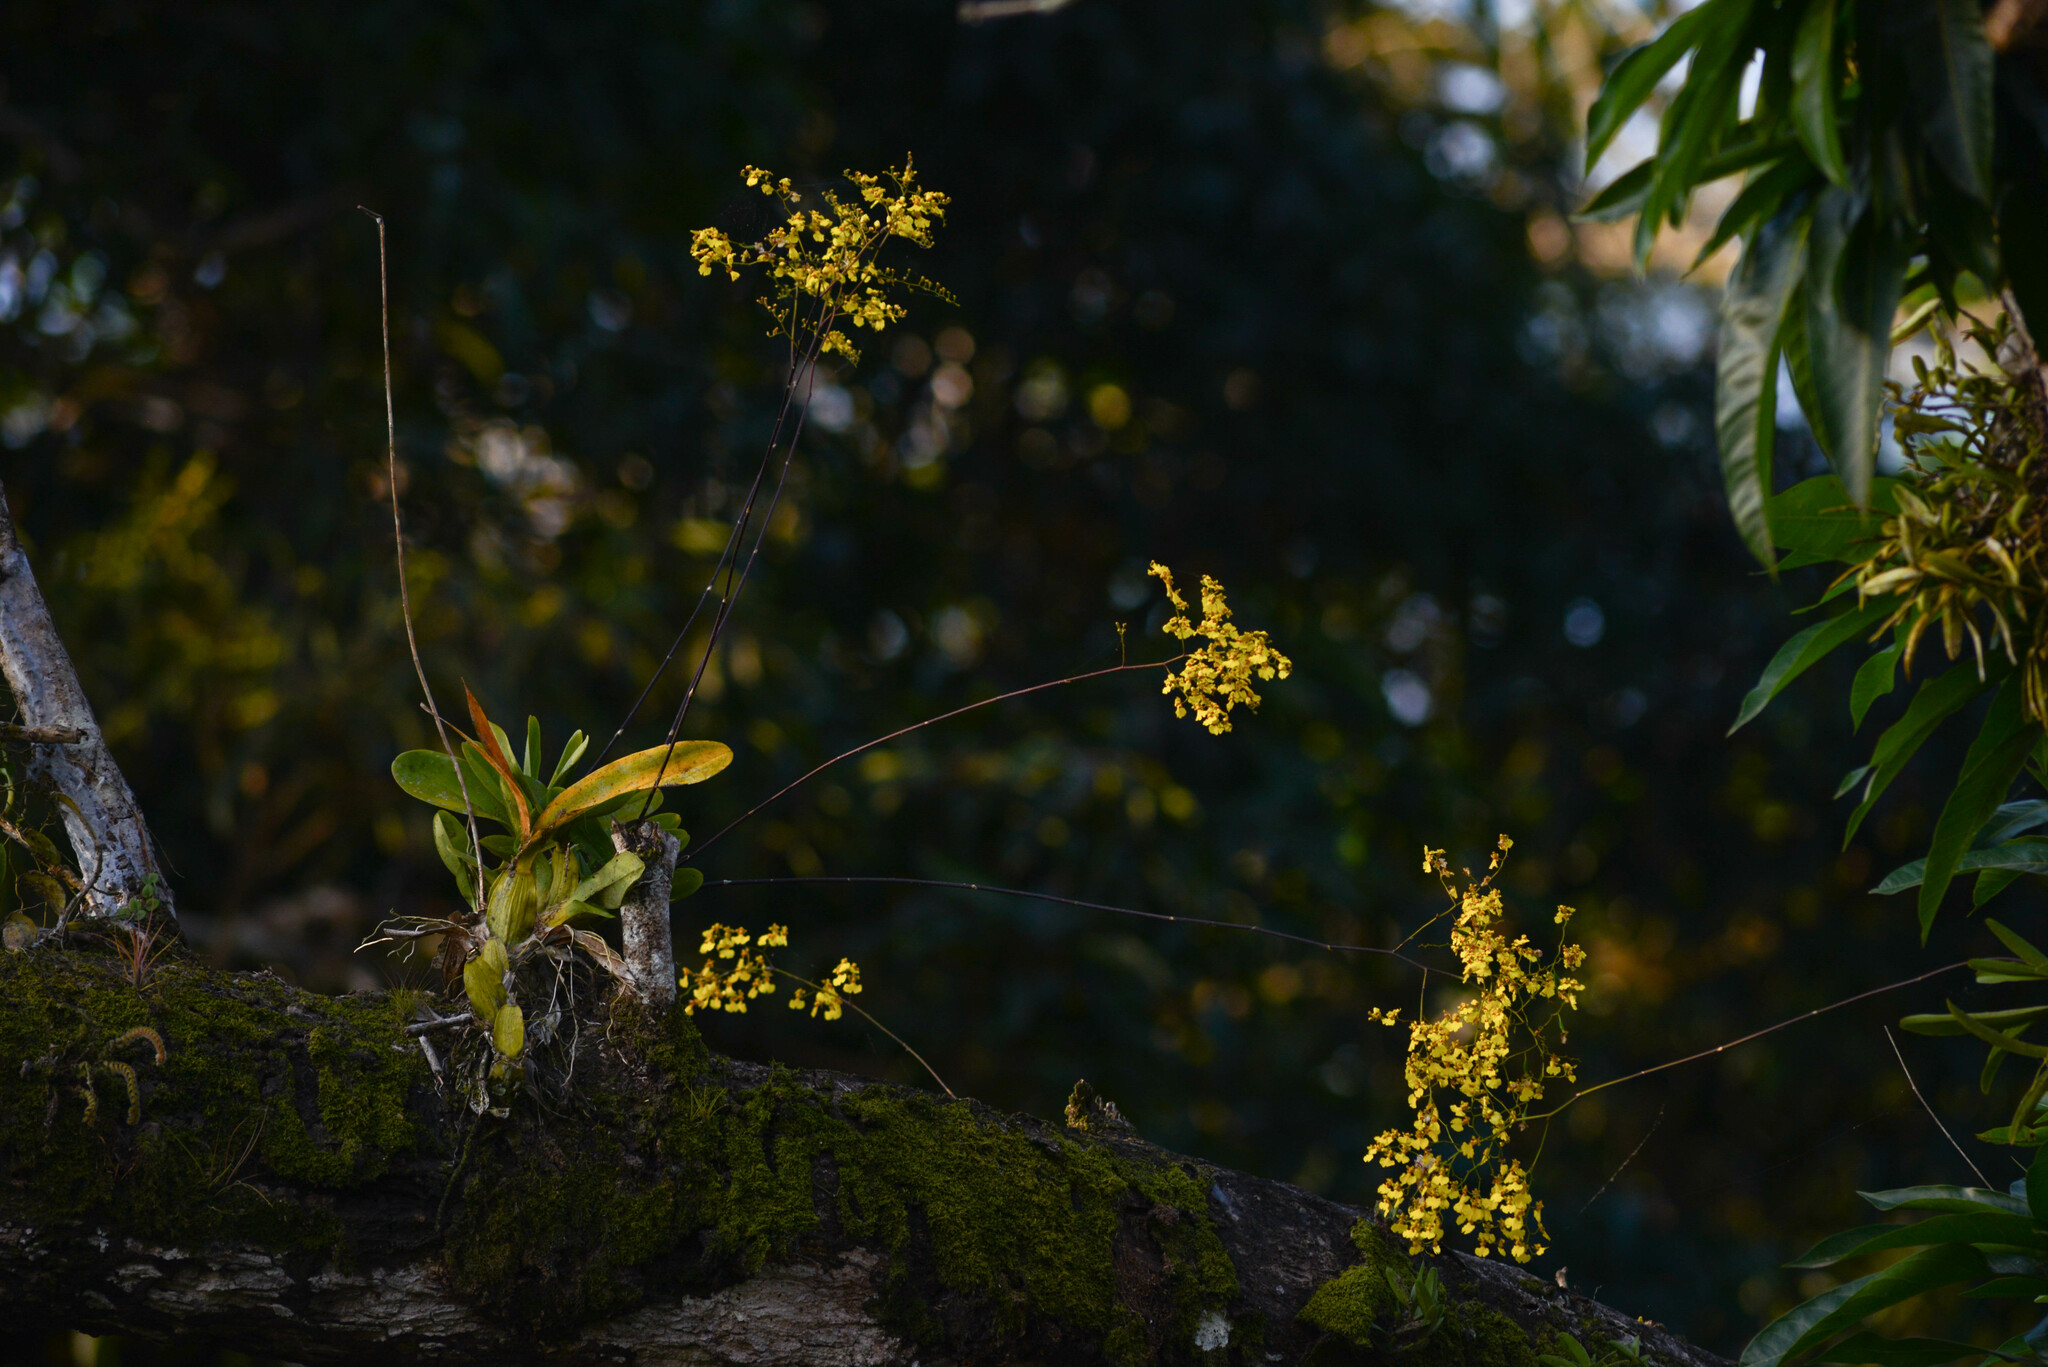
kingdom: Plantae
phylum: Tracheophyta
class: Liliopsida
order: Asparagales
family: Orchidaceae
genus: Gomesa
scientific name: Gomesa flexuosa
